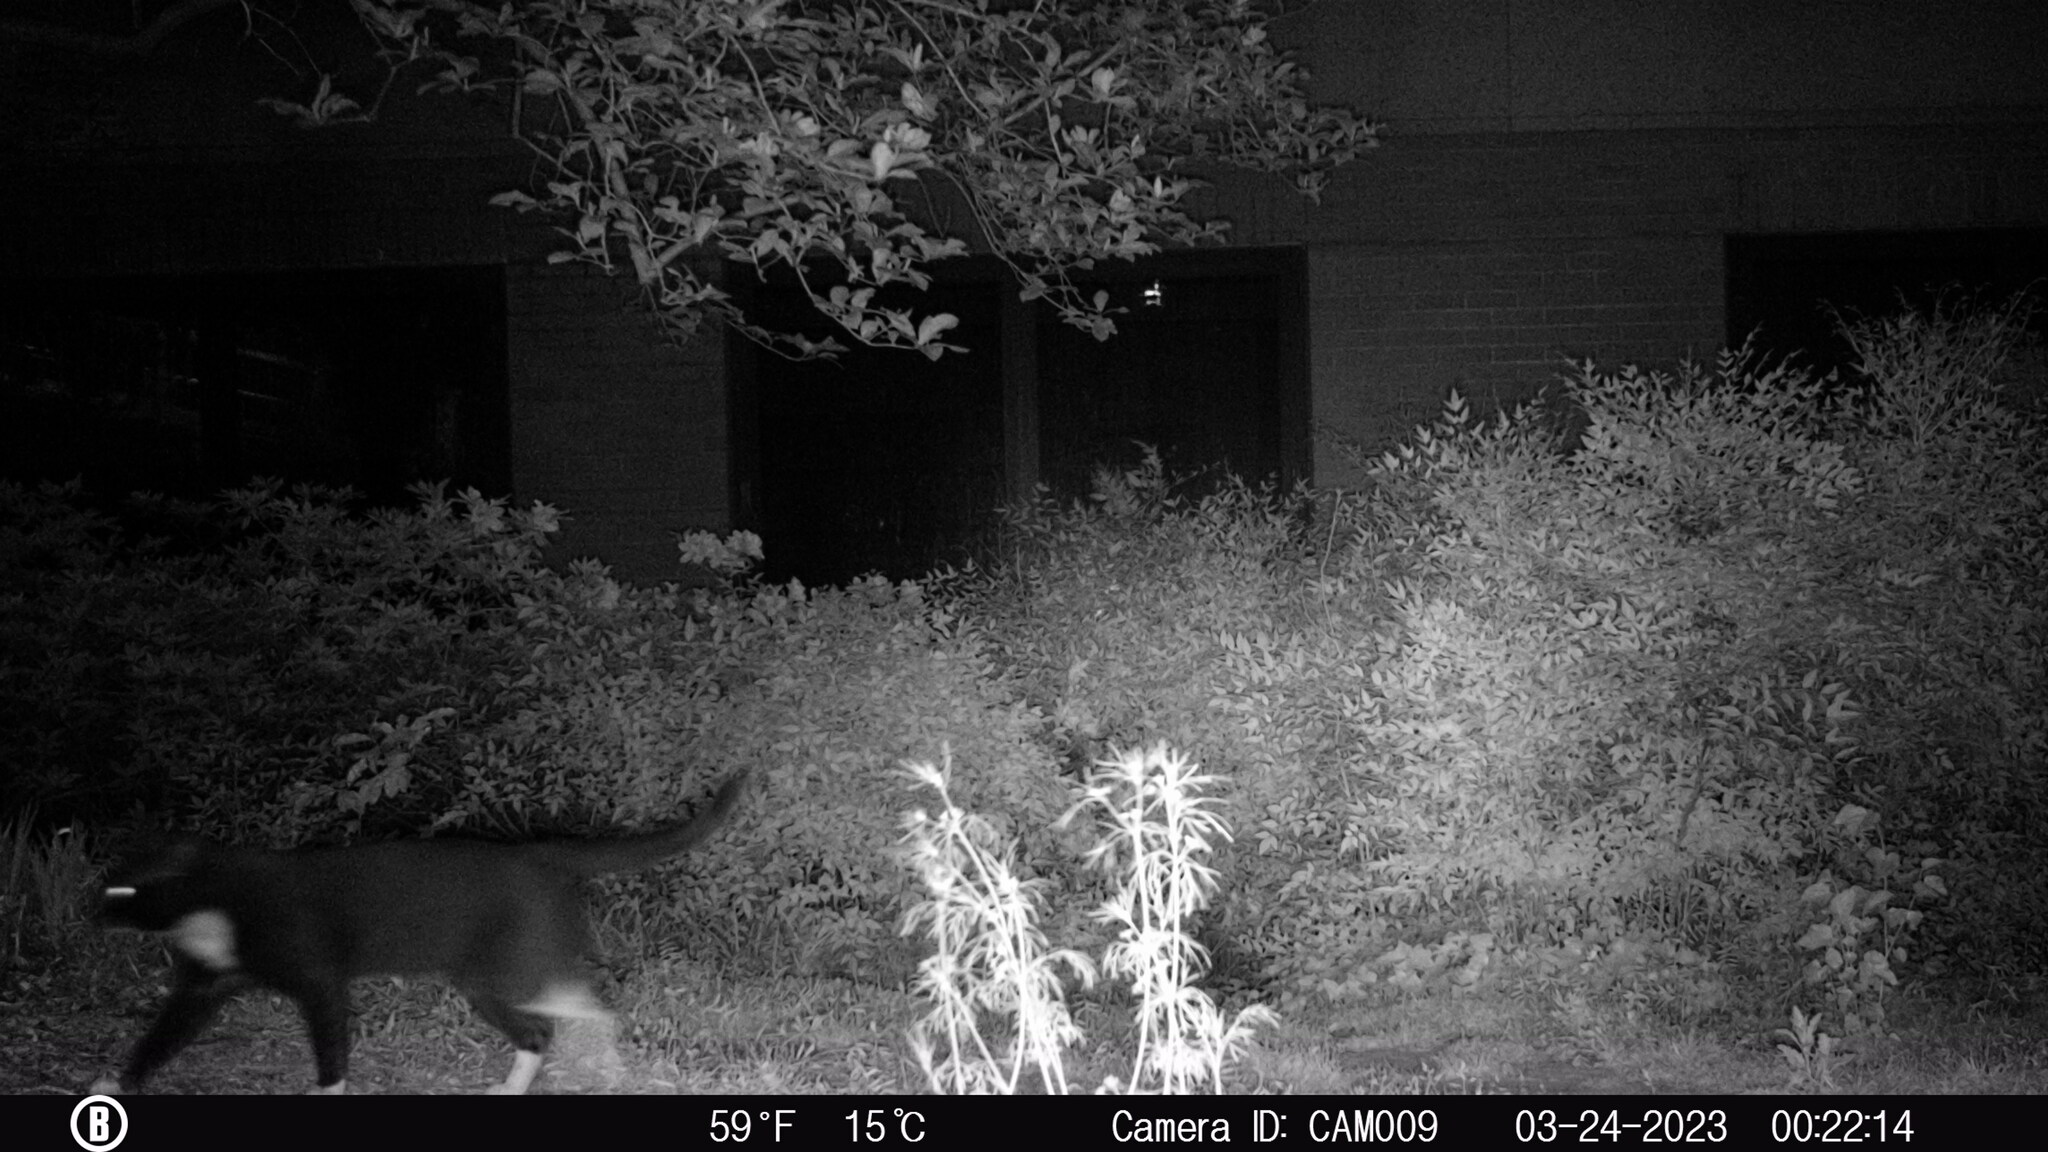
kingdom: Animalia
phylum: Chordata
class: Mammalia
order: Carnivora
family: Felidae
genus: Felis
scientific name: Felis catus
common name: Domestic cat
